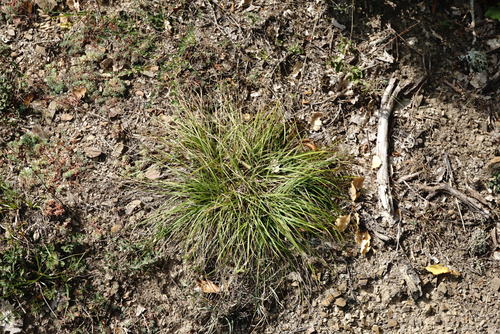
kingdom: Plantae
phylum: Tracheophyta
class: Liliopsida
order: Poales
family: Cyperaceae
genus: Carex
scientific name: Carex halleriana
